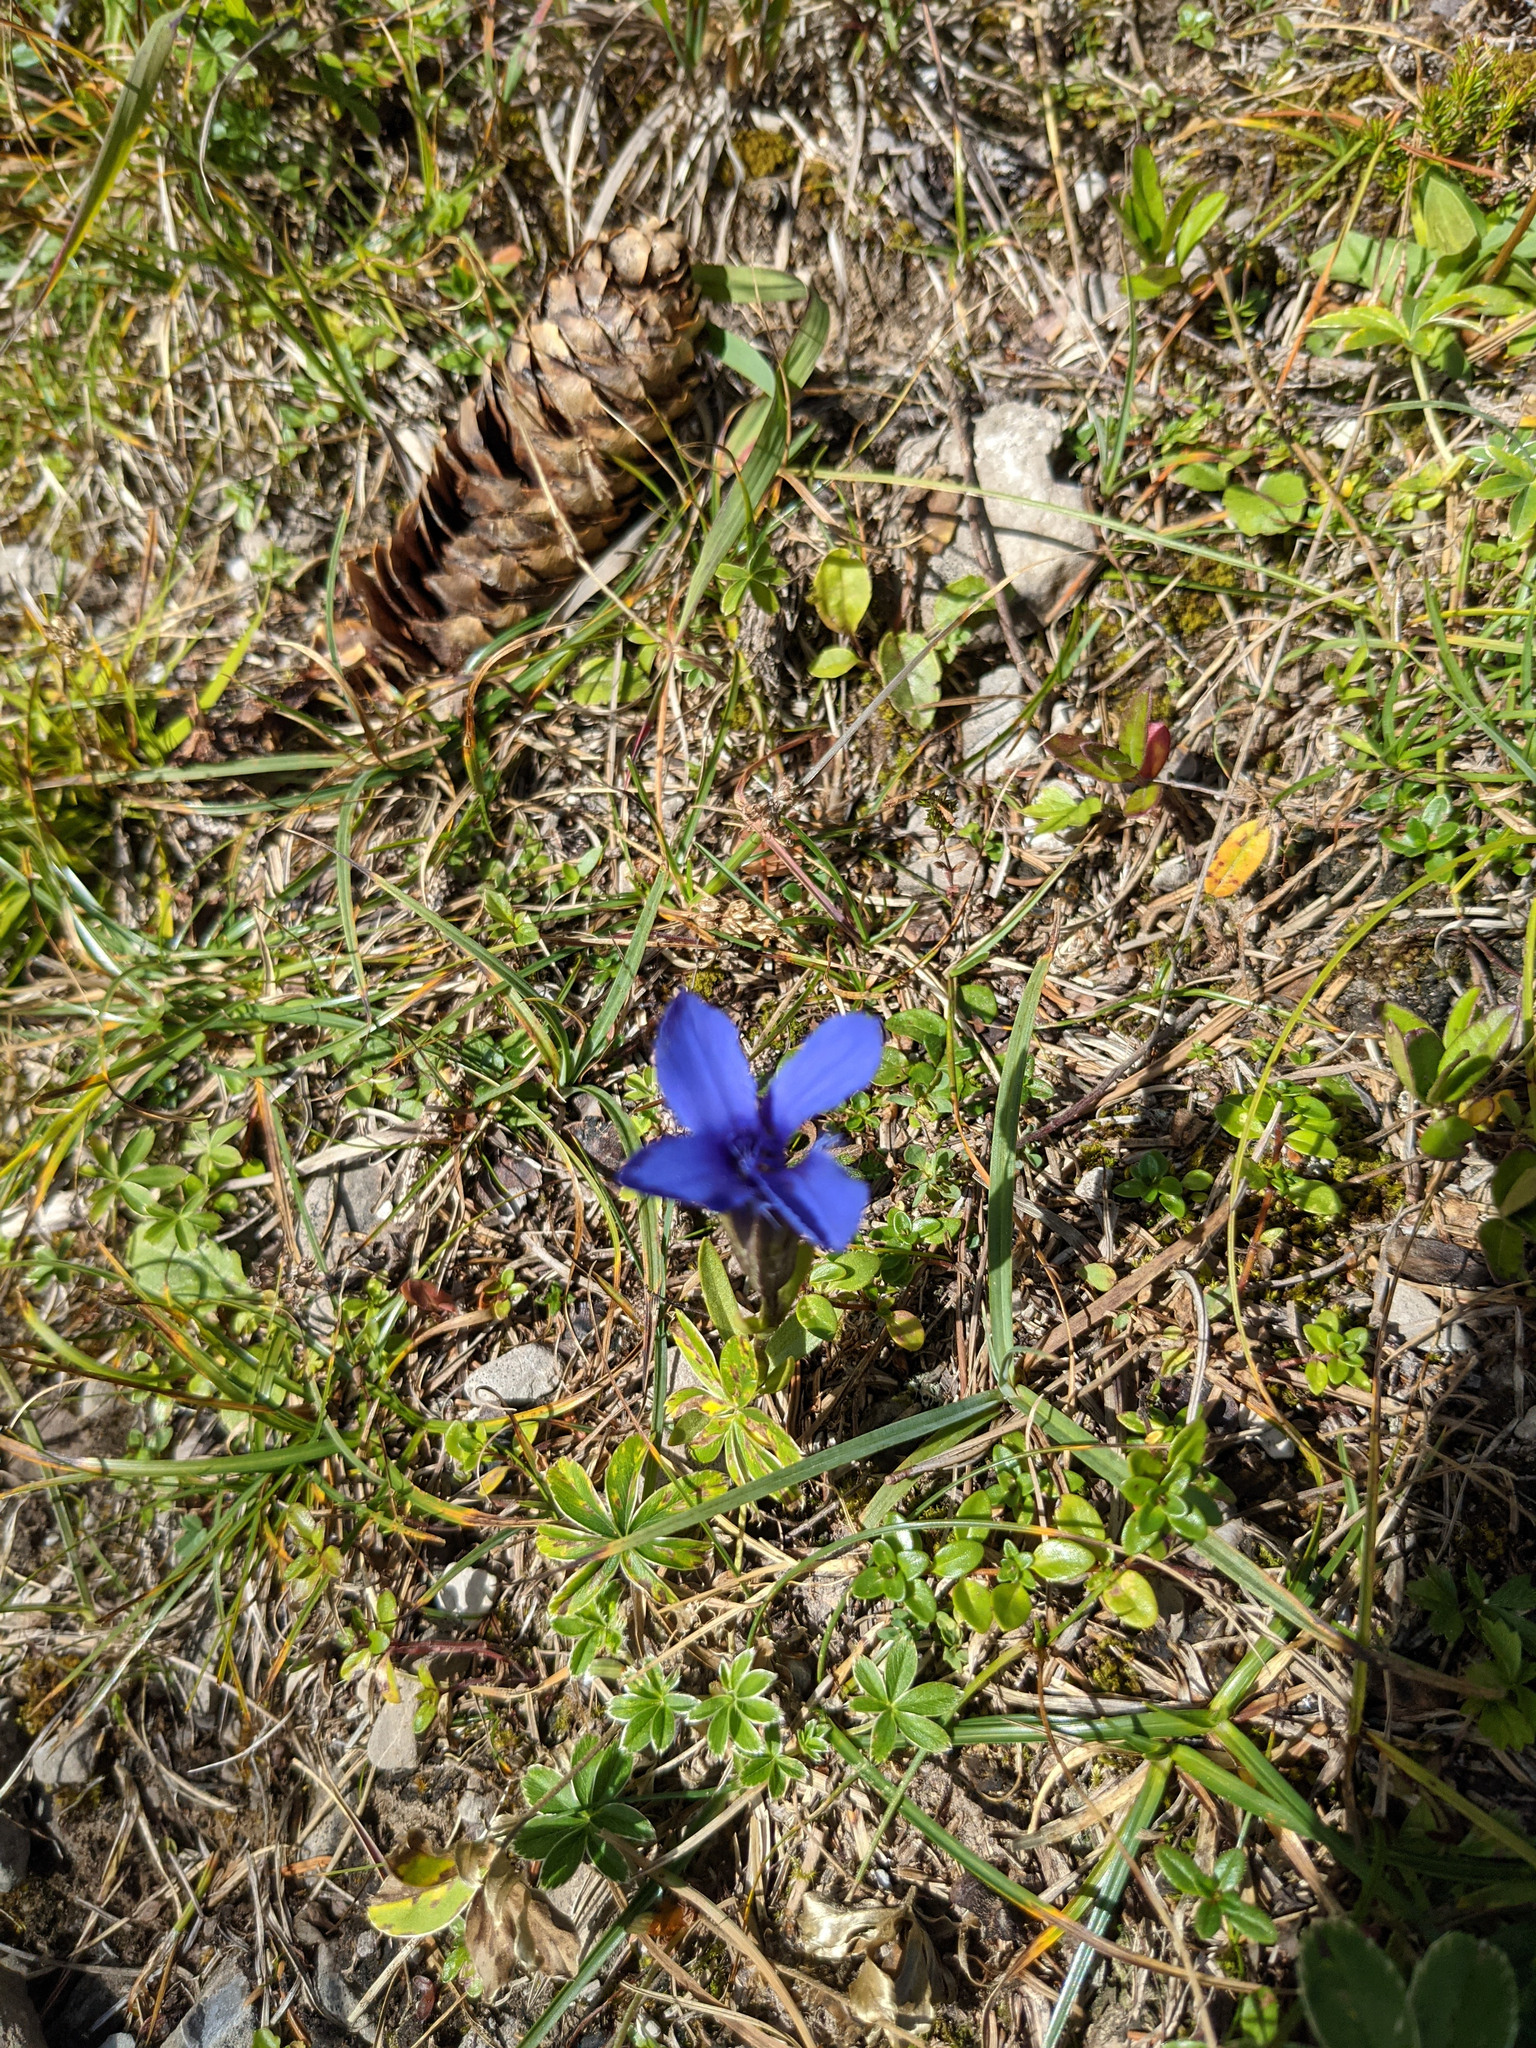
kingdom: Plantae
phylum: Tracheophyta
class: Magnoliopsida
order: Gentianales
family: Gentianaceae
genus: Gentianopsis
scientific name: Gentianopsis ciliata
